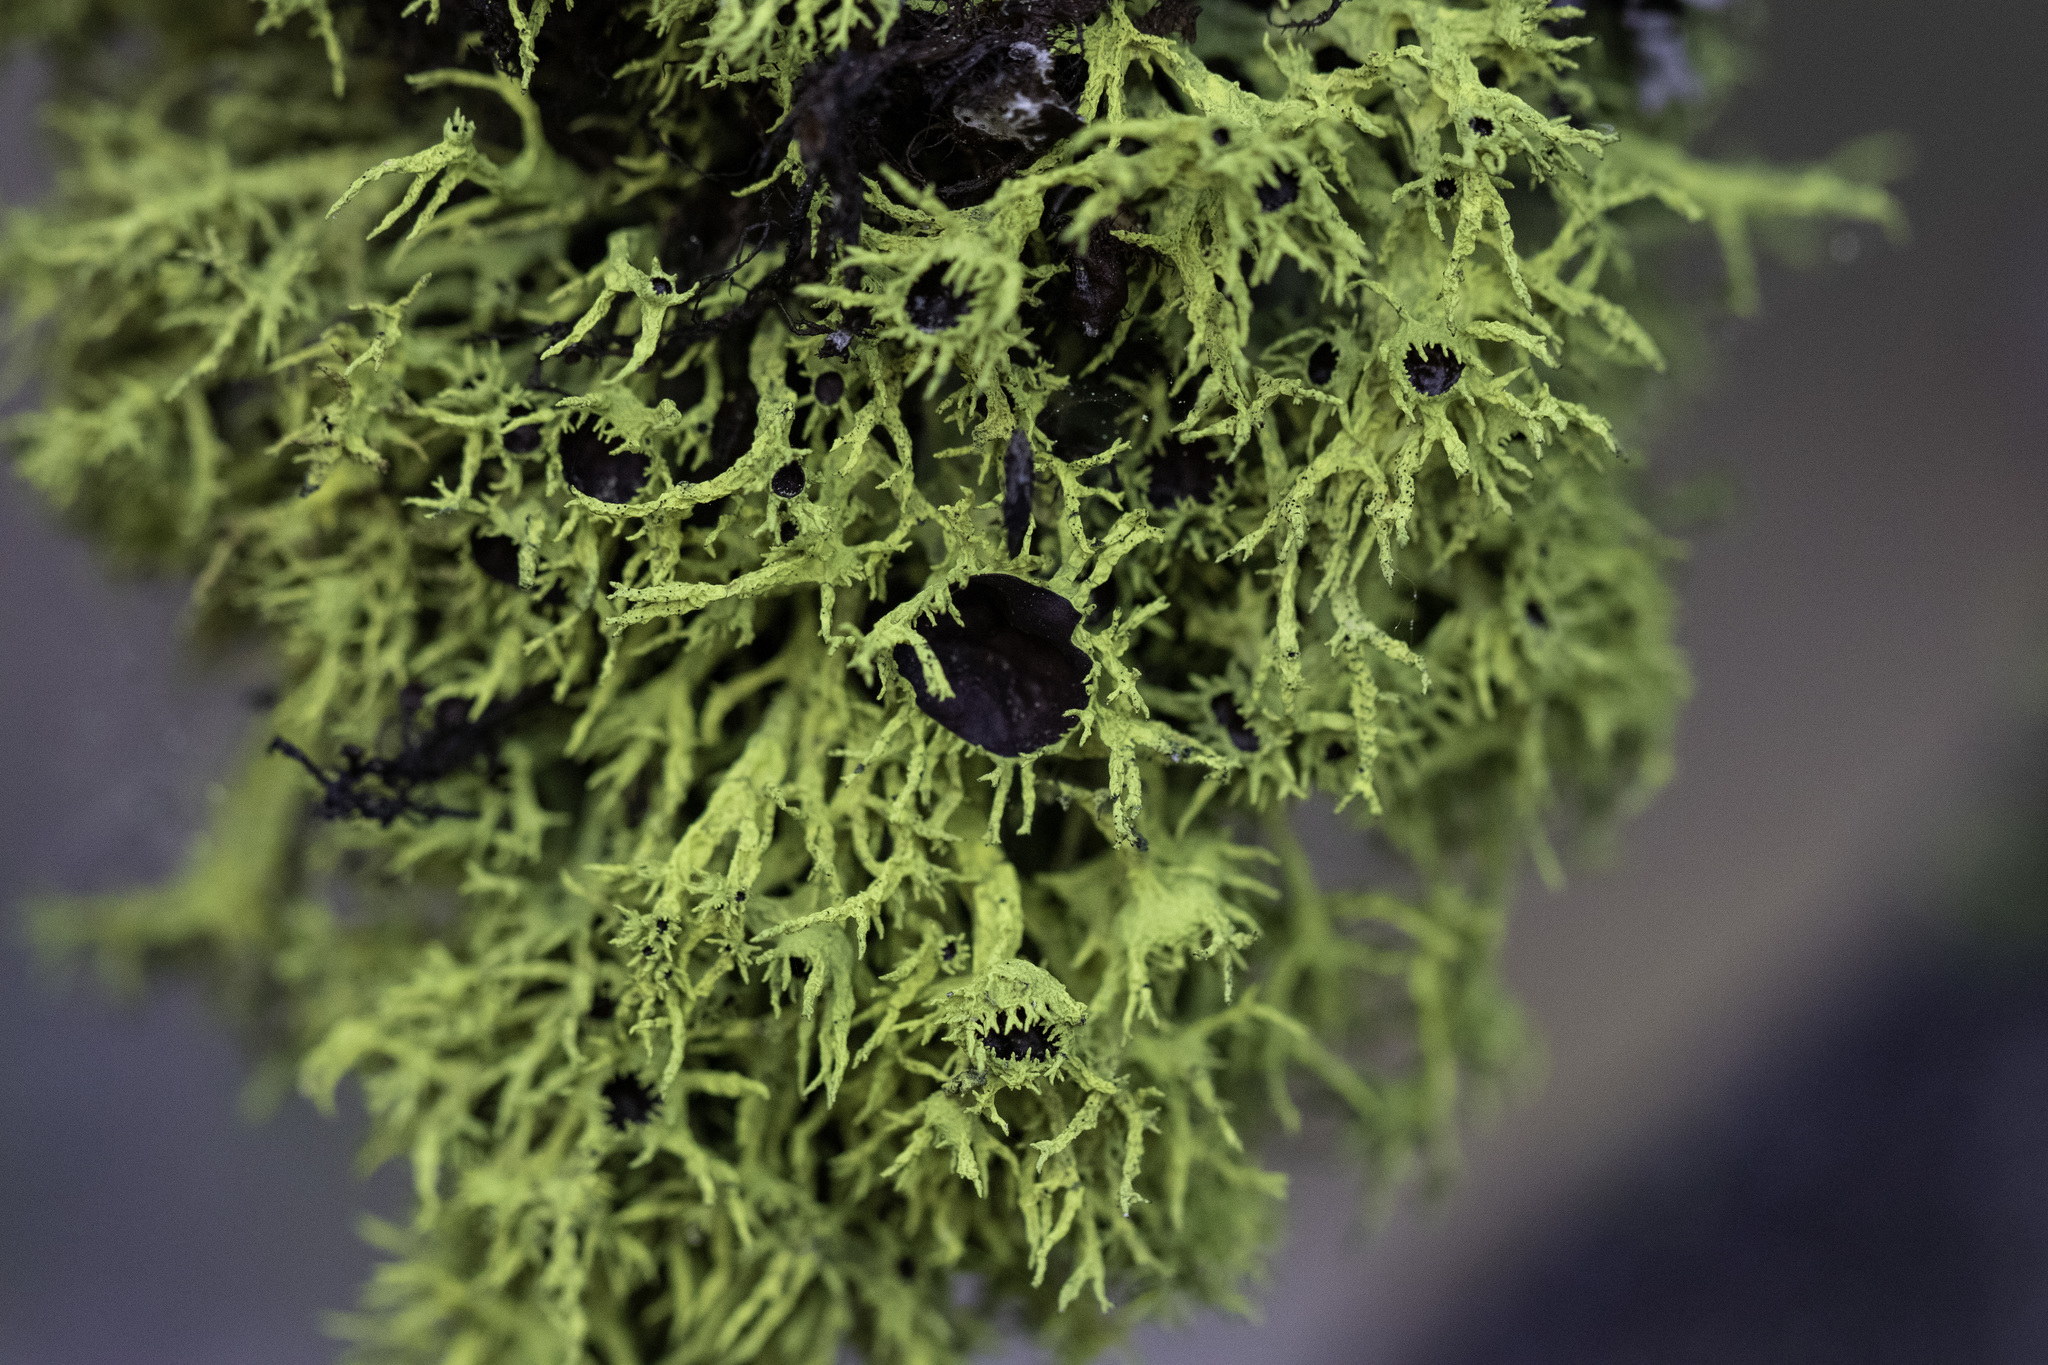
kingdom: Fungi
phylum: Ascomycota
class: Lecanoromycetes
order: Lecanorales
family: Parmeliaceae
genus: Letharia
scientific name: Letharia columbiana
